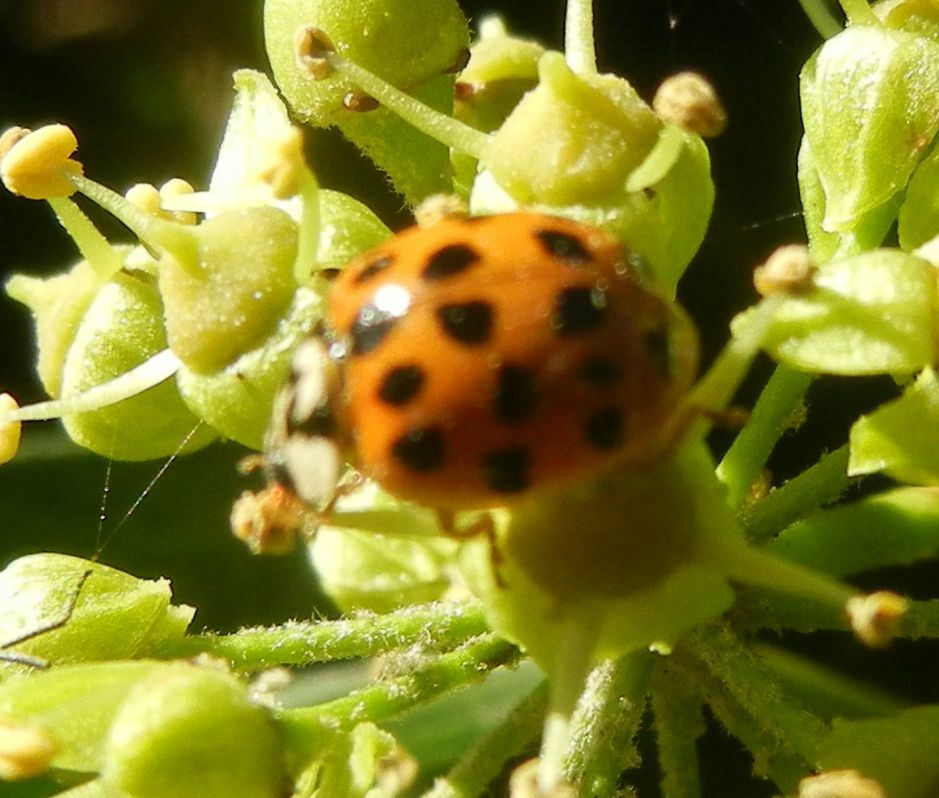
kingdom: Animalia
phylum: Arthropoda
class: Insecta
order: Coleoptera
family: Coccinellidae
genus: Harmonia
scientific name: Harmonia axyridis
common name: Harlequin ladybird
